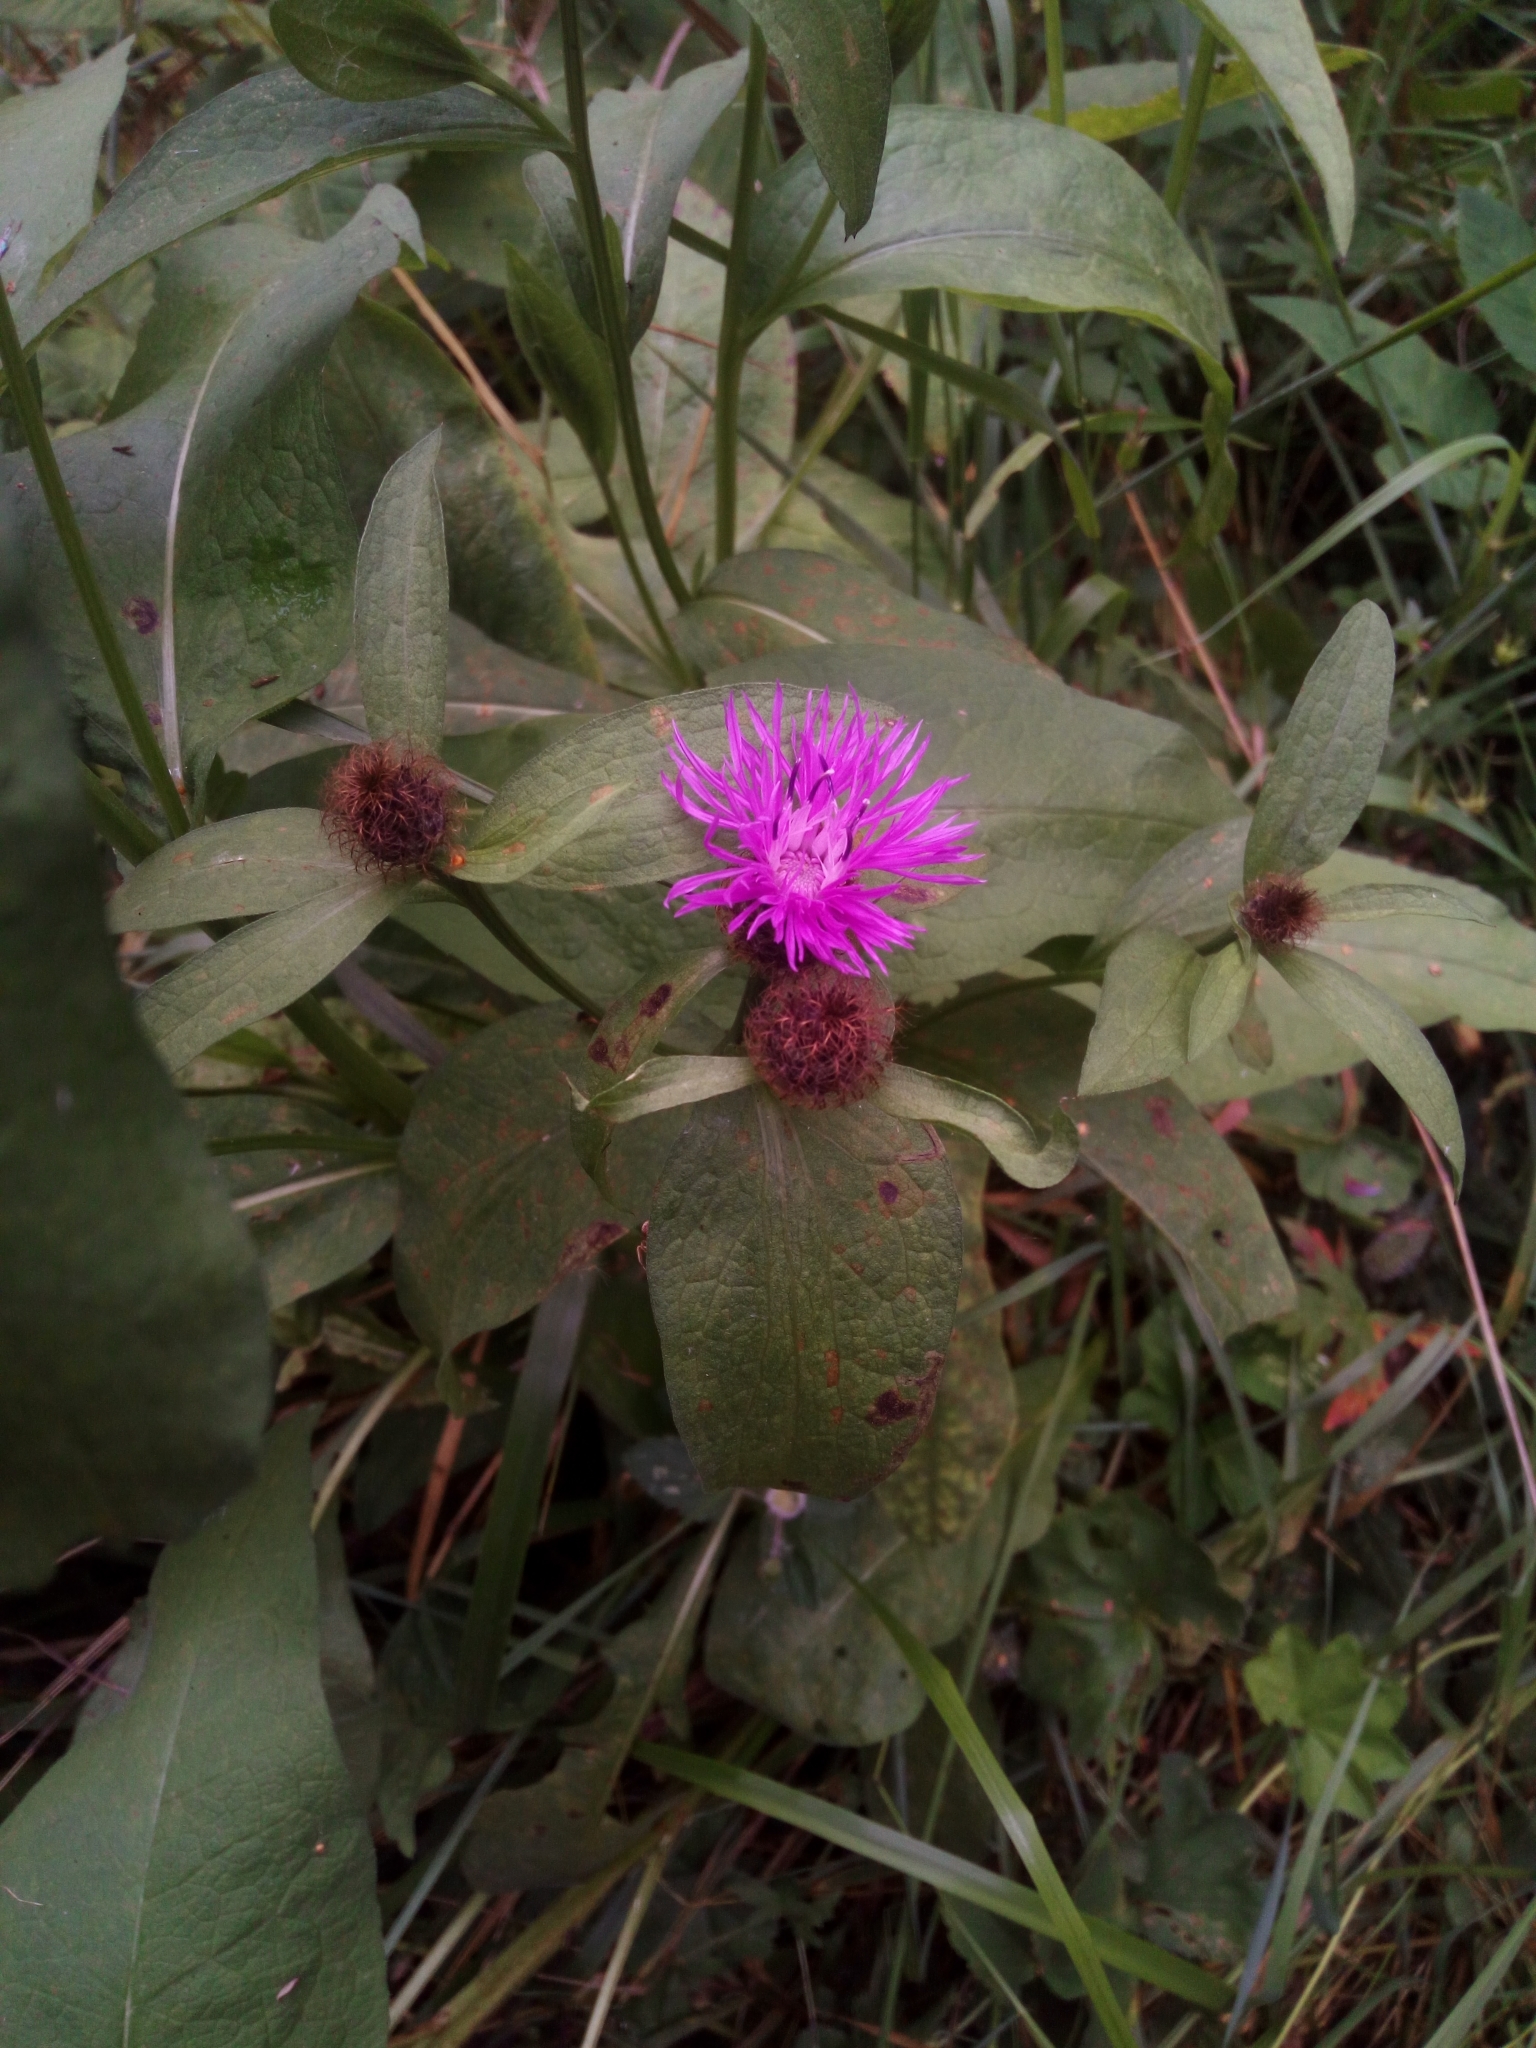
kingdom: Plantae
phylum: Tracheophyta
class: Magnoliopsida
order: Asterales
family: Asteraceae
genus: Centaurea
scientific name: Centaurea phrygia
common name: Wig knapweed
